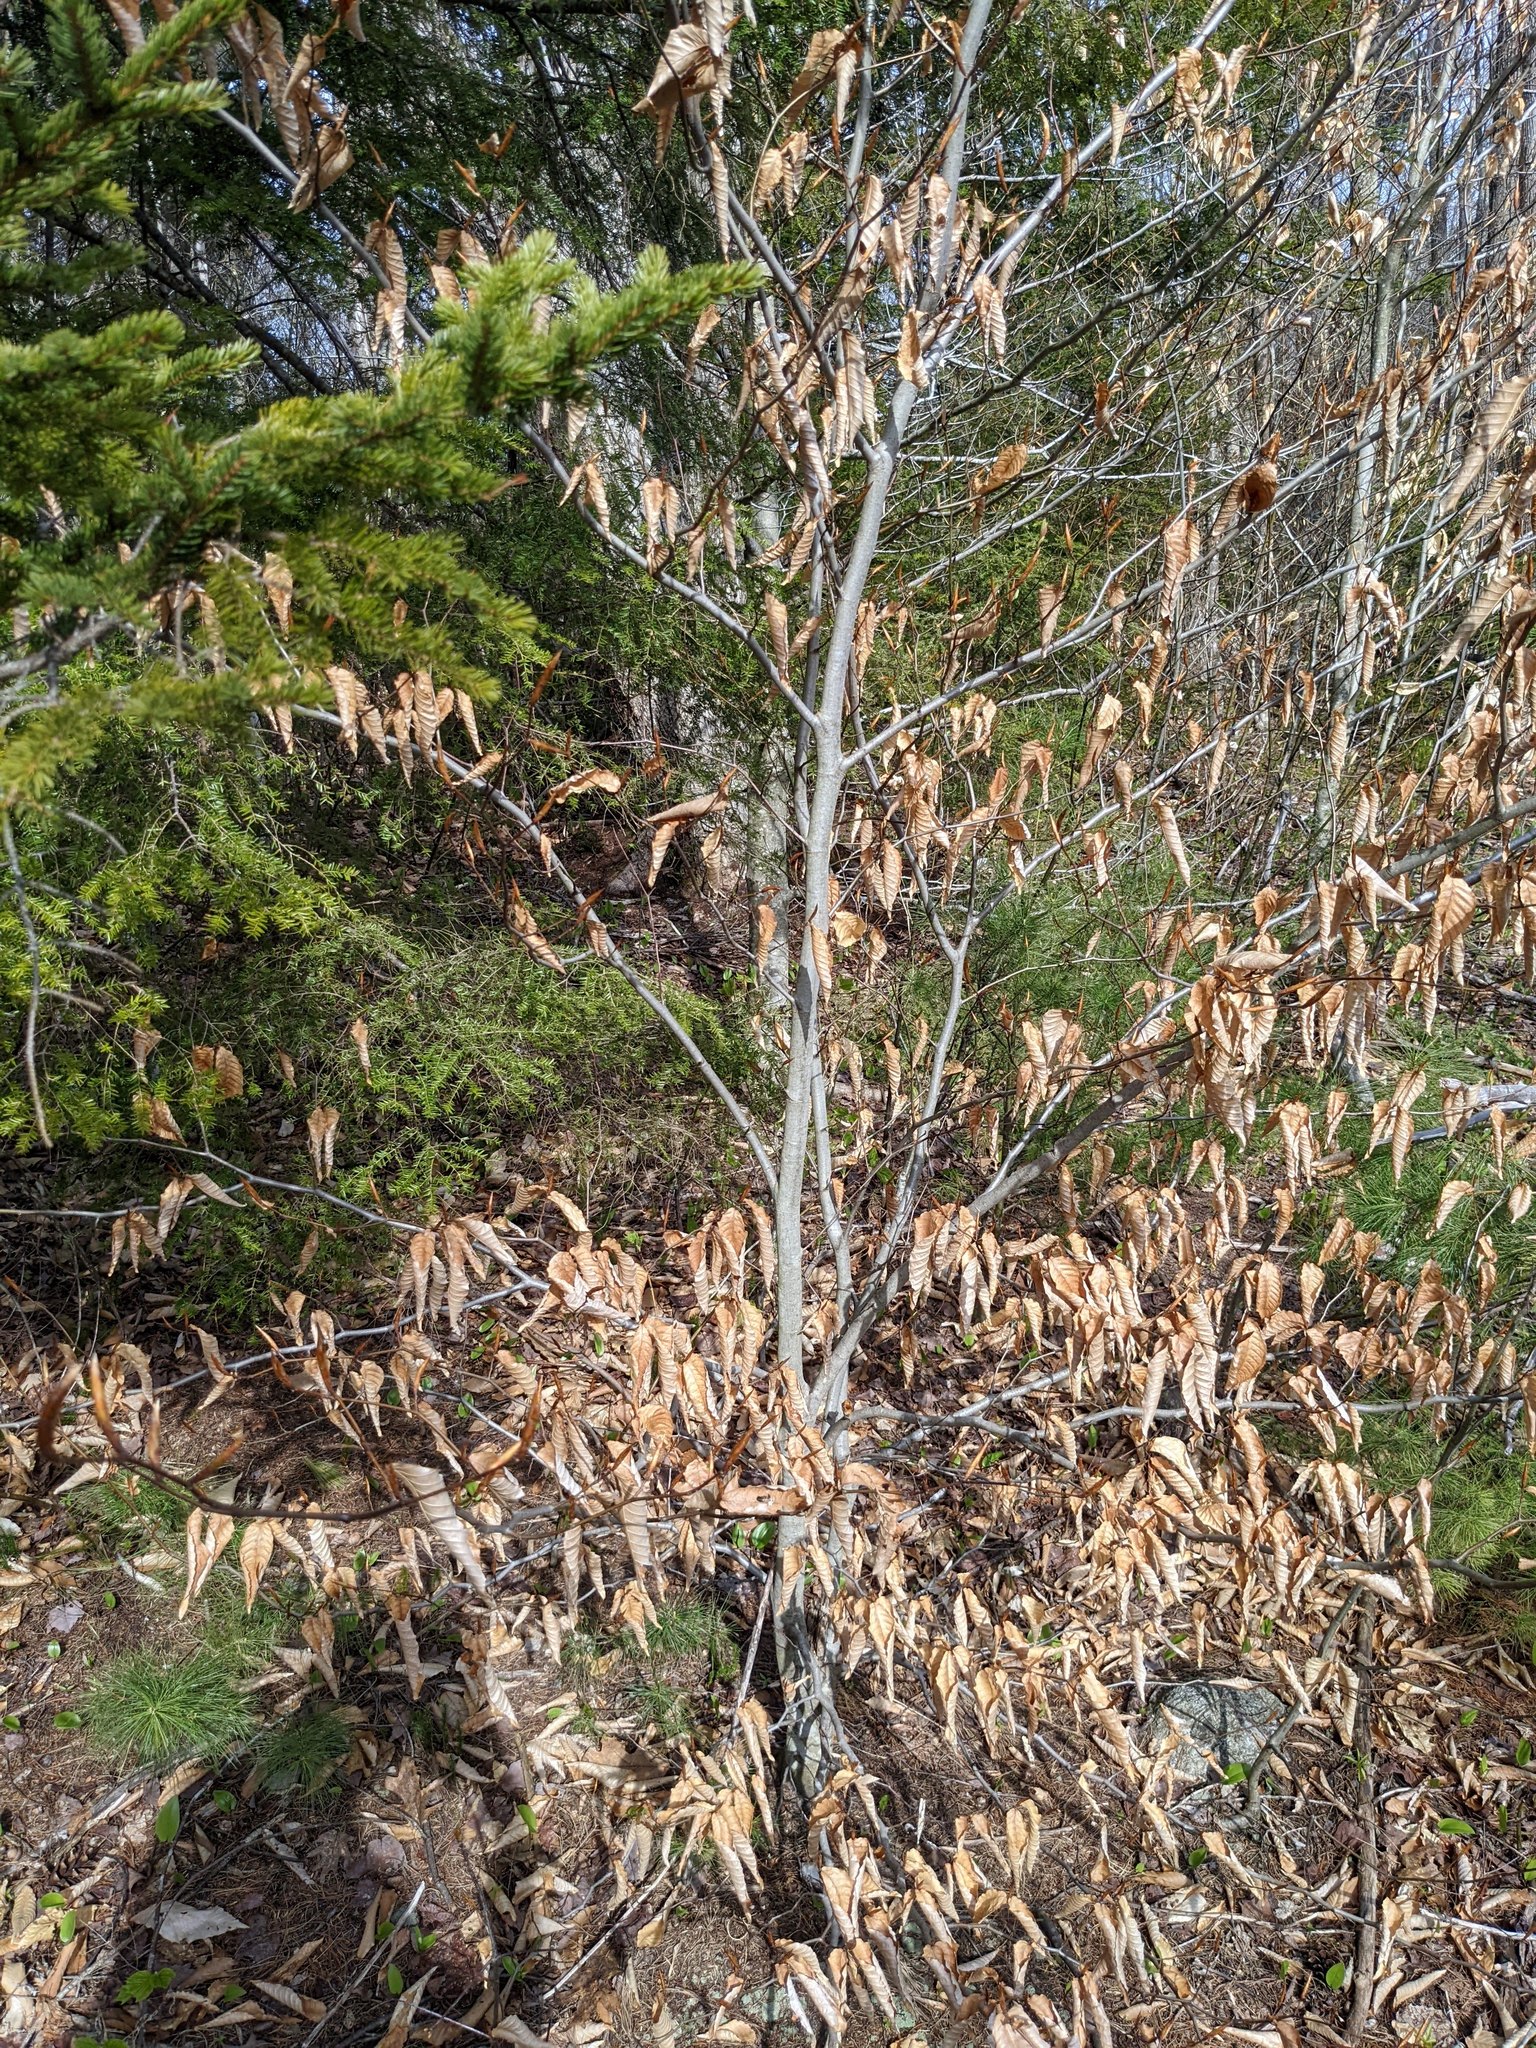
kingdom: Plantae
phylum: Tracheophyta
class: Magnoliopsida
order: Fagales
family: Fagaceae
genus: Fagus
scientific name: Fagus grandifolia
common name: American beech
